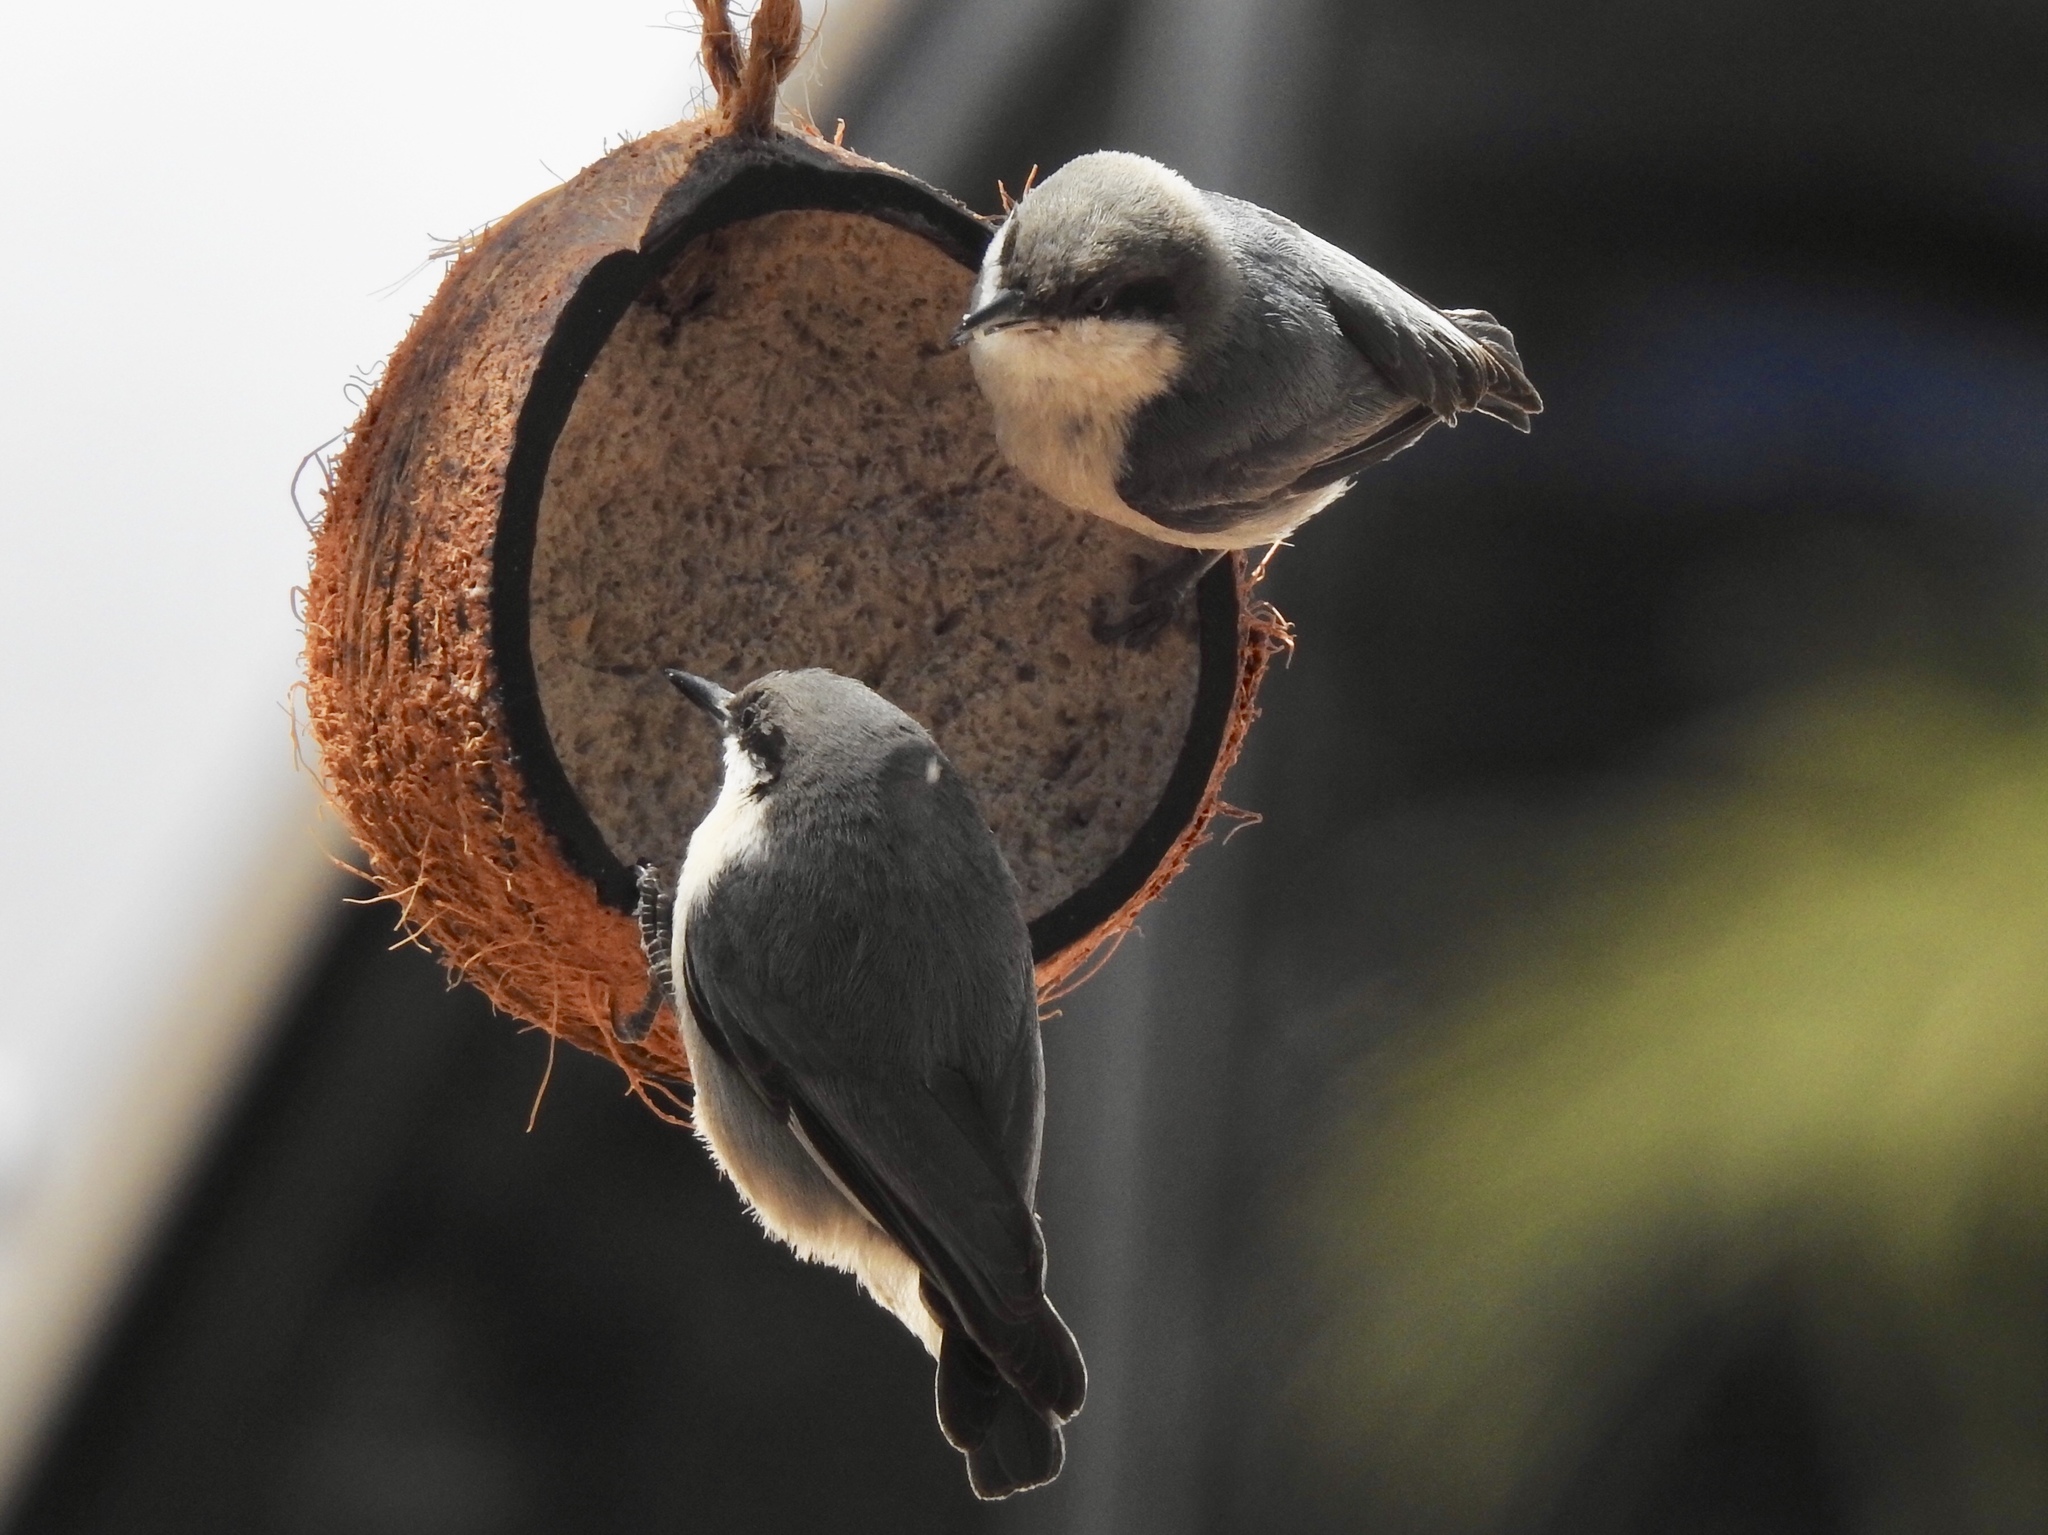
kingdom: Animalia
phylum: Chordata
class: Aves
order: Passeriformes
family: Sittidae
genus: Sitta
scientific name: Sitta pygmaea
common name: Pygmy nuthatch
